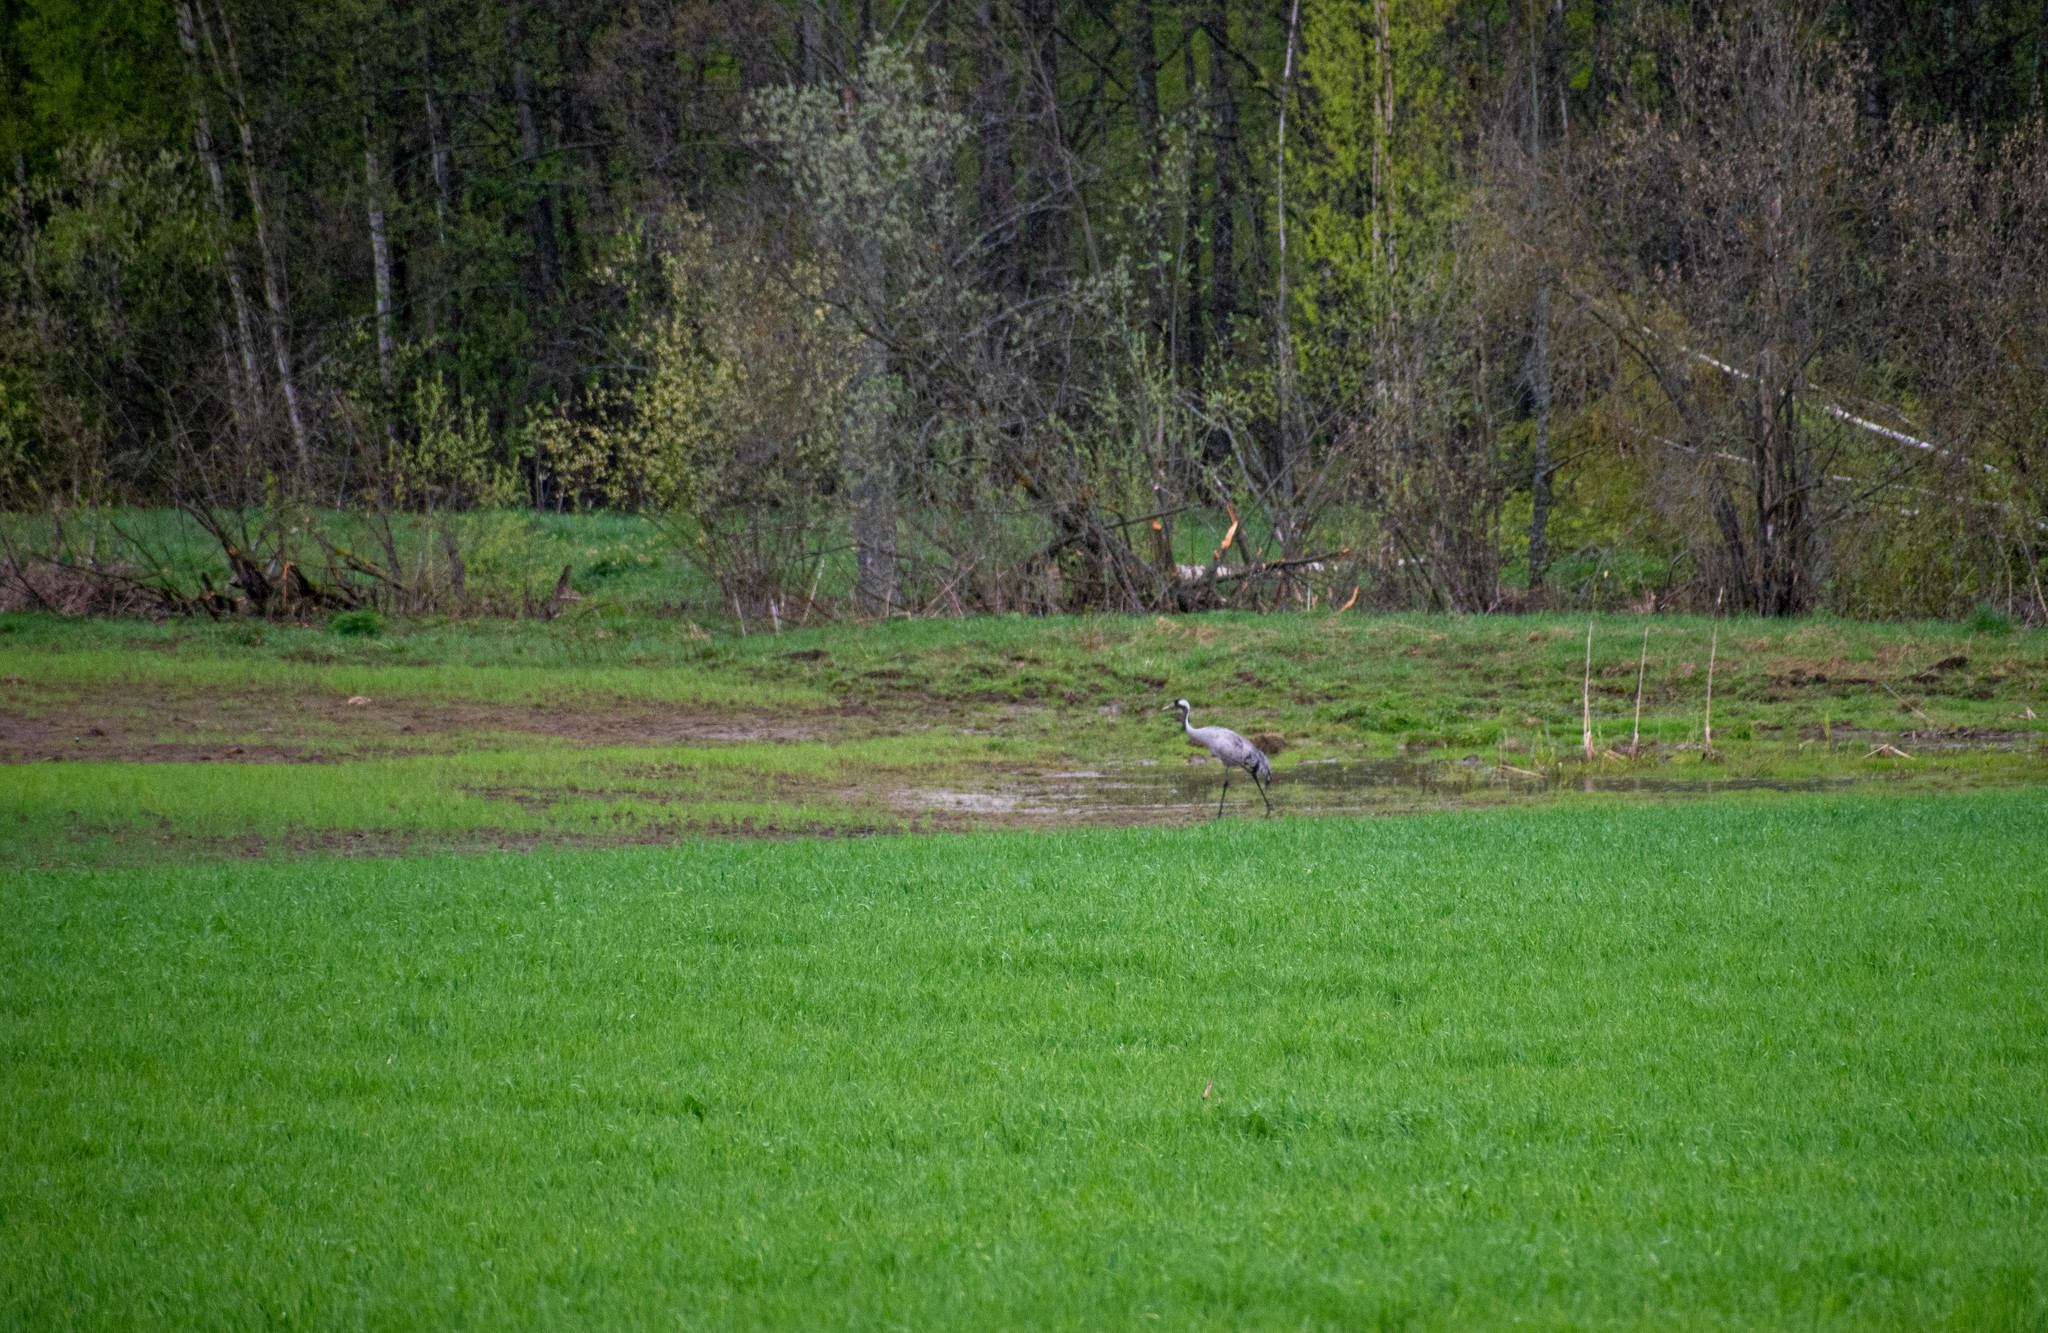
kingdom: Animalia
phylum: Chordata
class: Aves
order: Gruiformes
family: Gruidae
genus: Grus
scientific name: Grus grus
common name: Common crane
